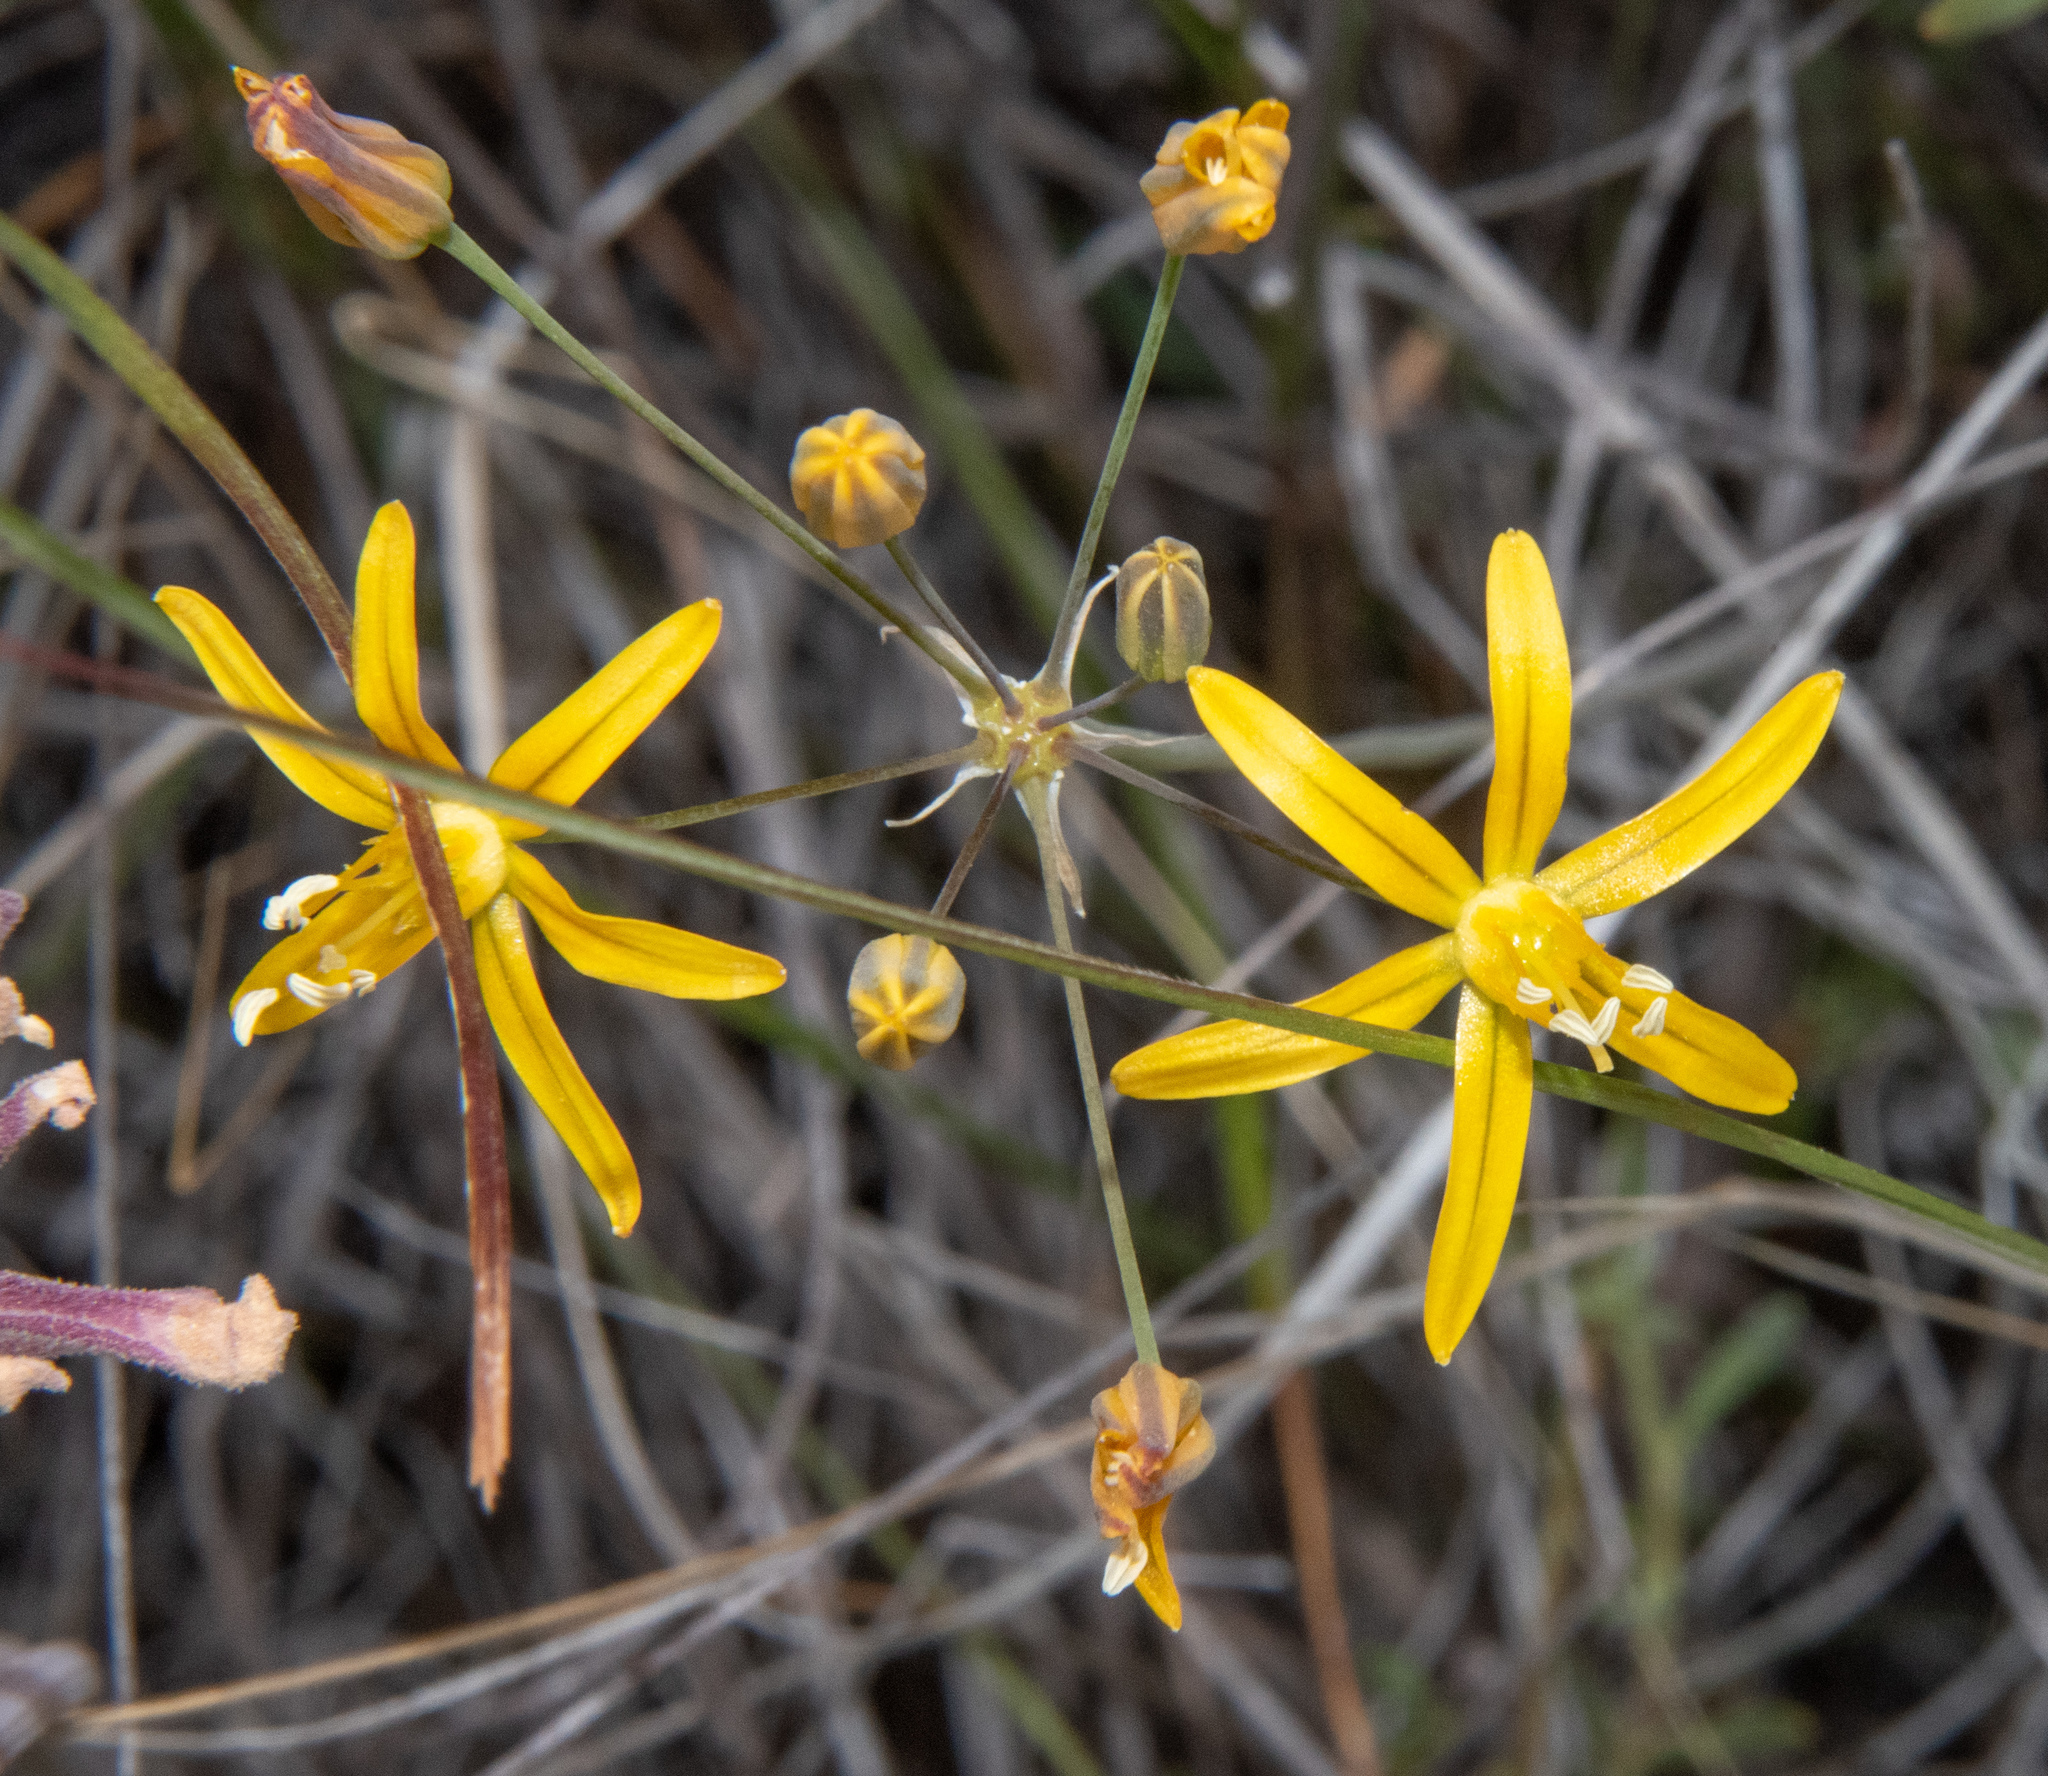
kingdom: Plantae
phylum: Tracheophyta
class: Liliopsida
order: Asparagales
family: Asparagaceae
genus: Bloomeria
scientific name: Bloomeria crocea
